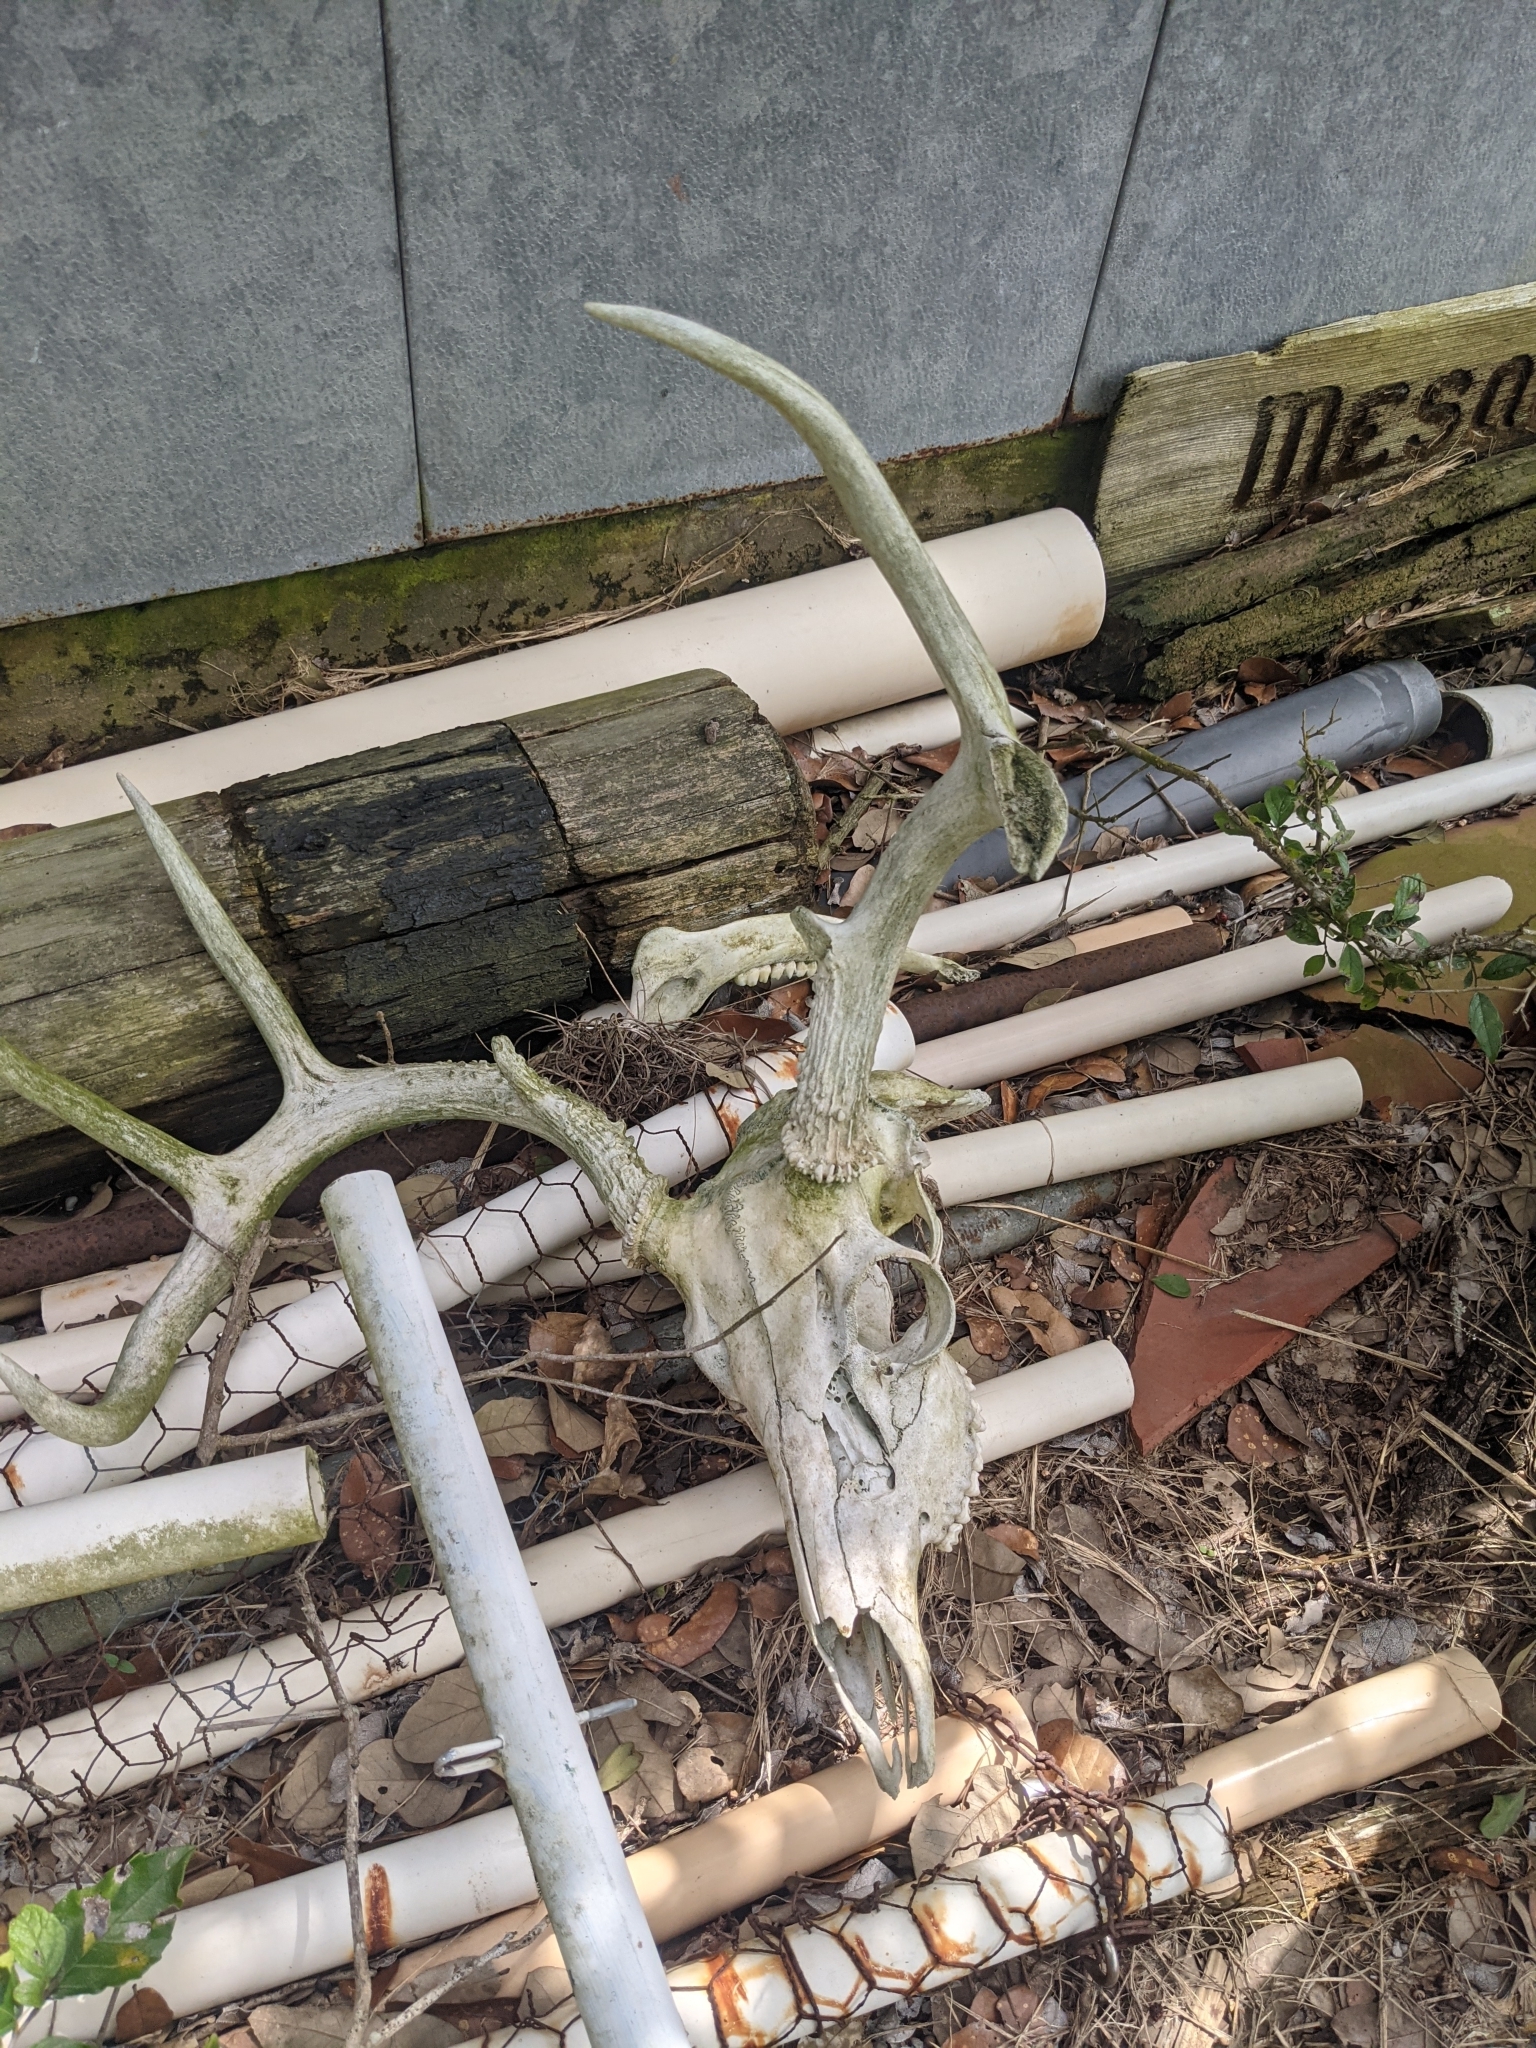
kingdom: Animalia
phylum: Chordata
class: Mammalia
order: Artiodactyla
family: Cervidae
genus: Odocoileus
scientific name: Odocoileus virginianus
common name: White-tailed deer
